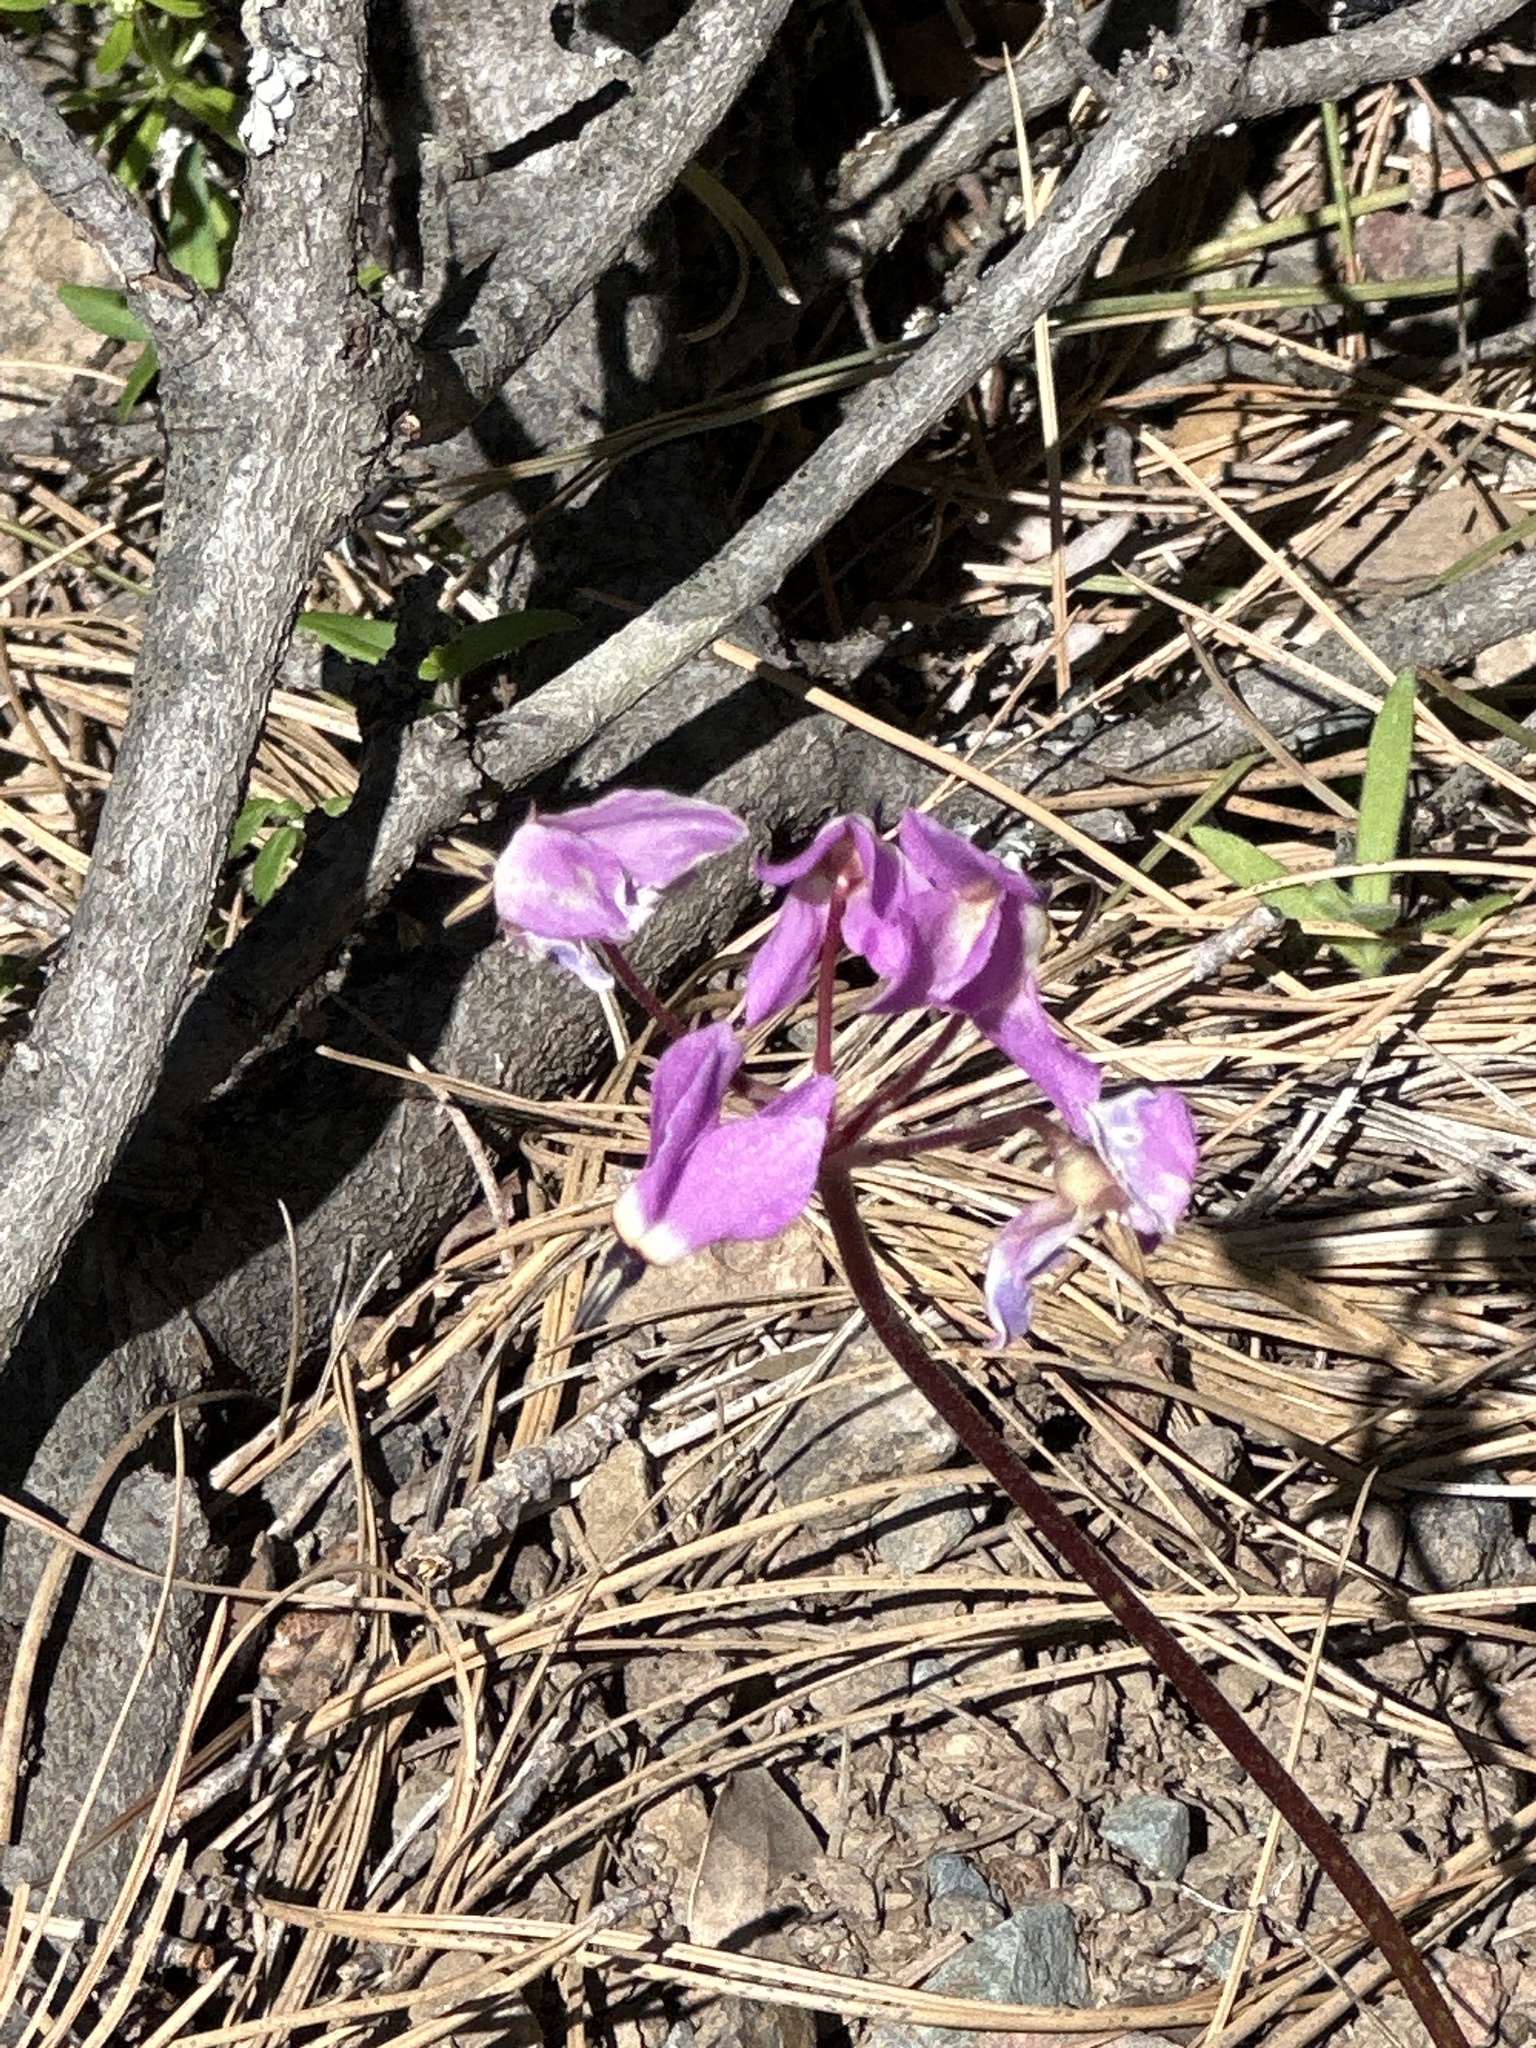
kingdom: Plantae
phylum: Tracheophyta
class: Magnoliopsida
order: Ericales
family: Primulaceae
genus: Dodecatheon
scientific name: Dodecatheon hendersonii
